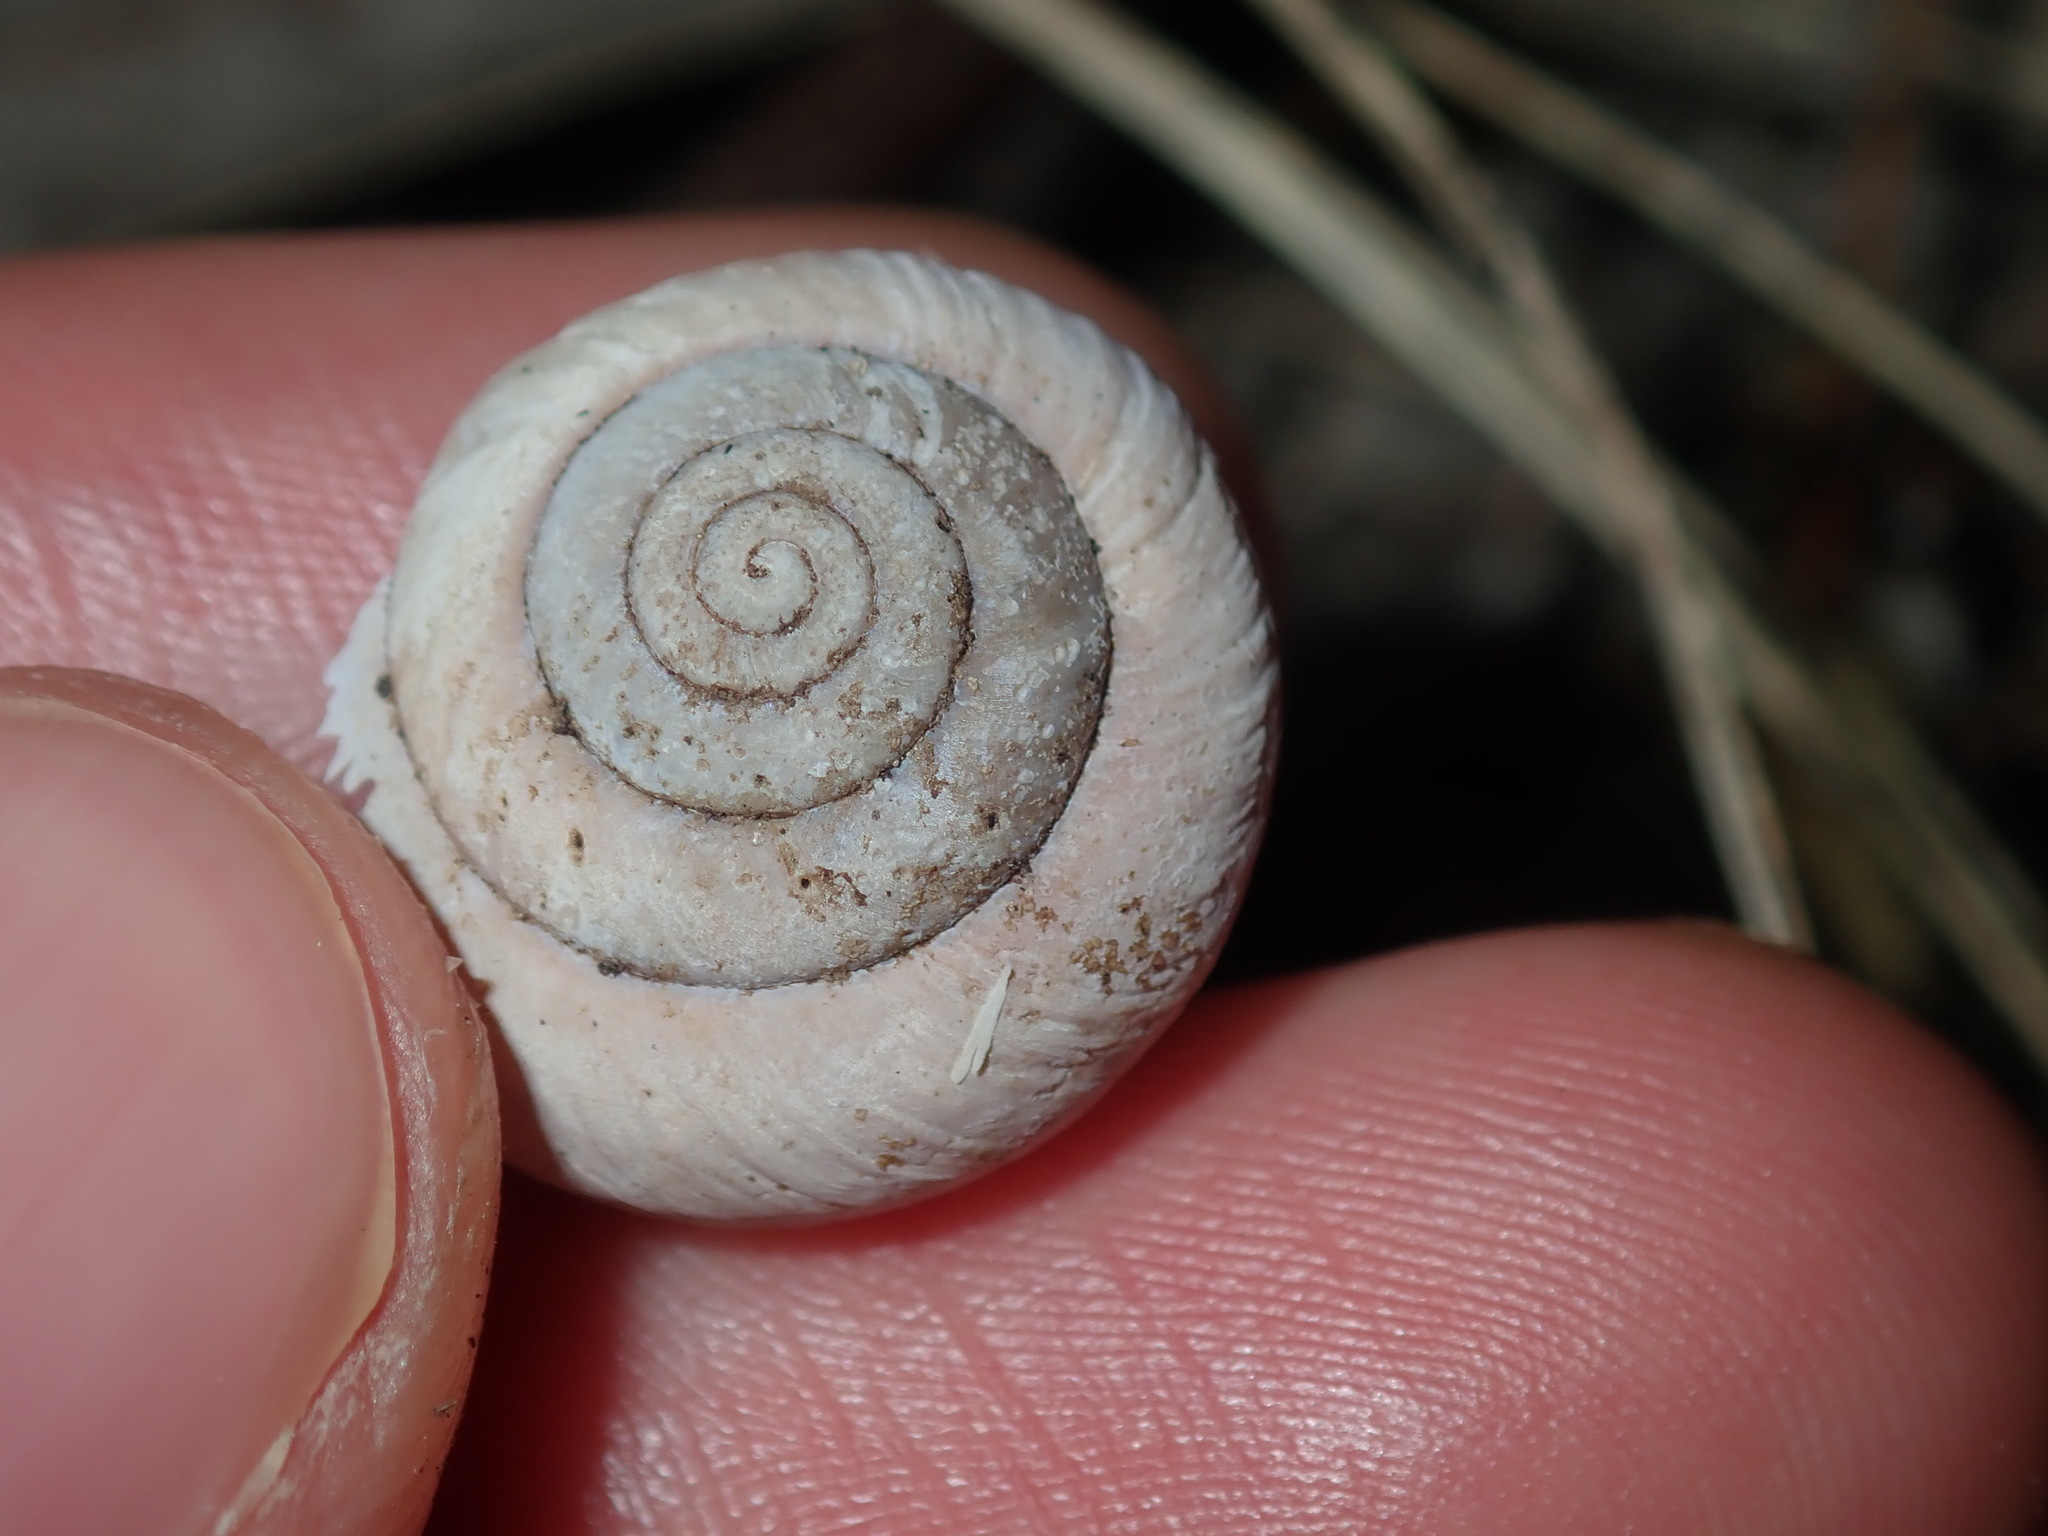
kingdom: Animalia
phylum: Mollusca
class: Gastropoda
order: Stylommatophora
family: Camaenidae
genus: Sauroconcha
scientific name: Sauroconcha sheai
